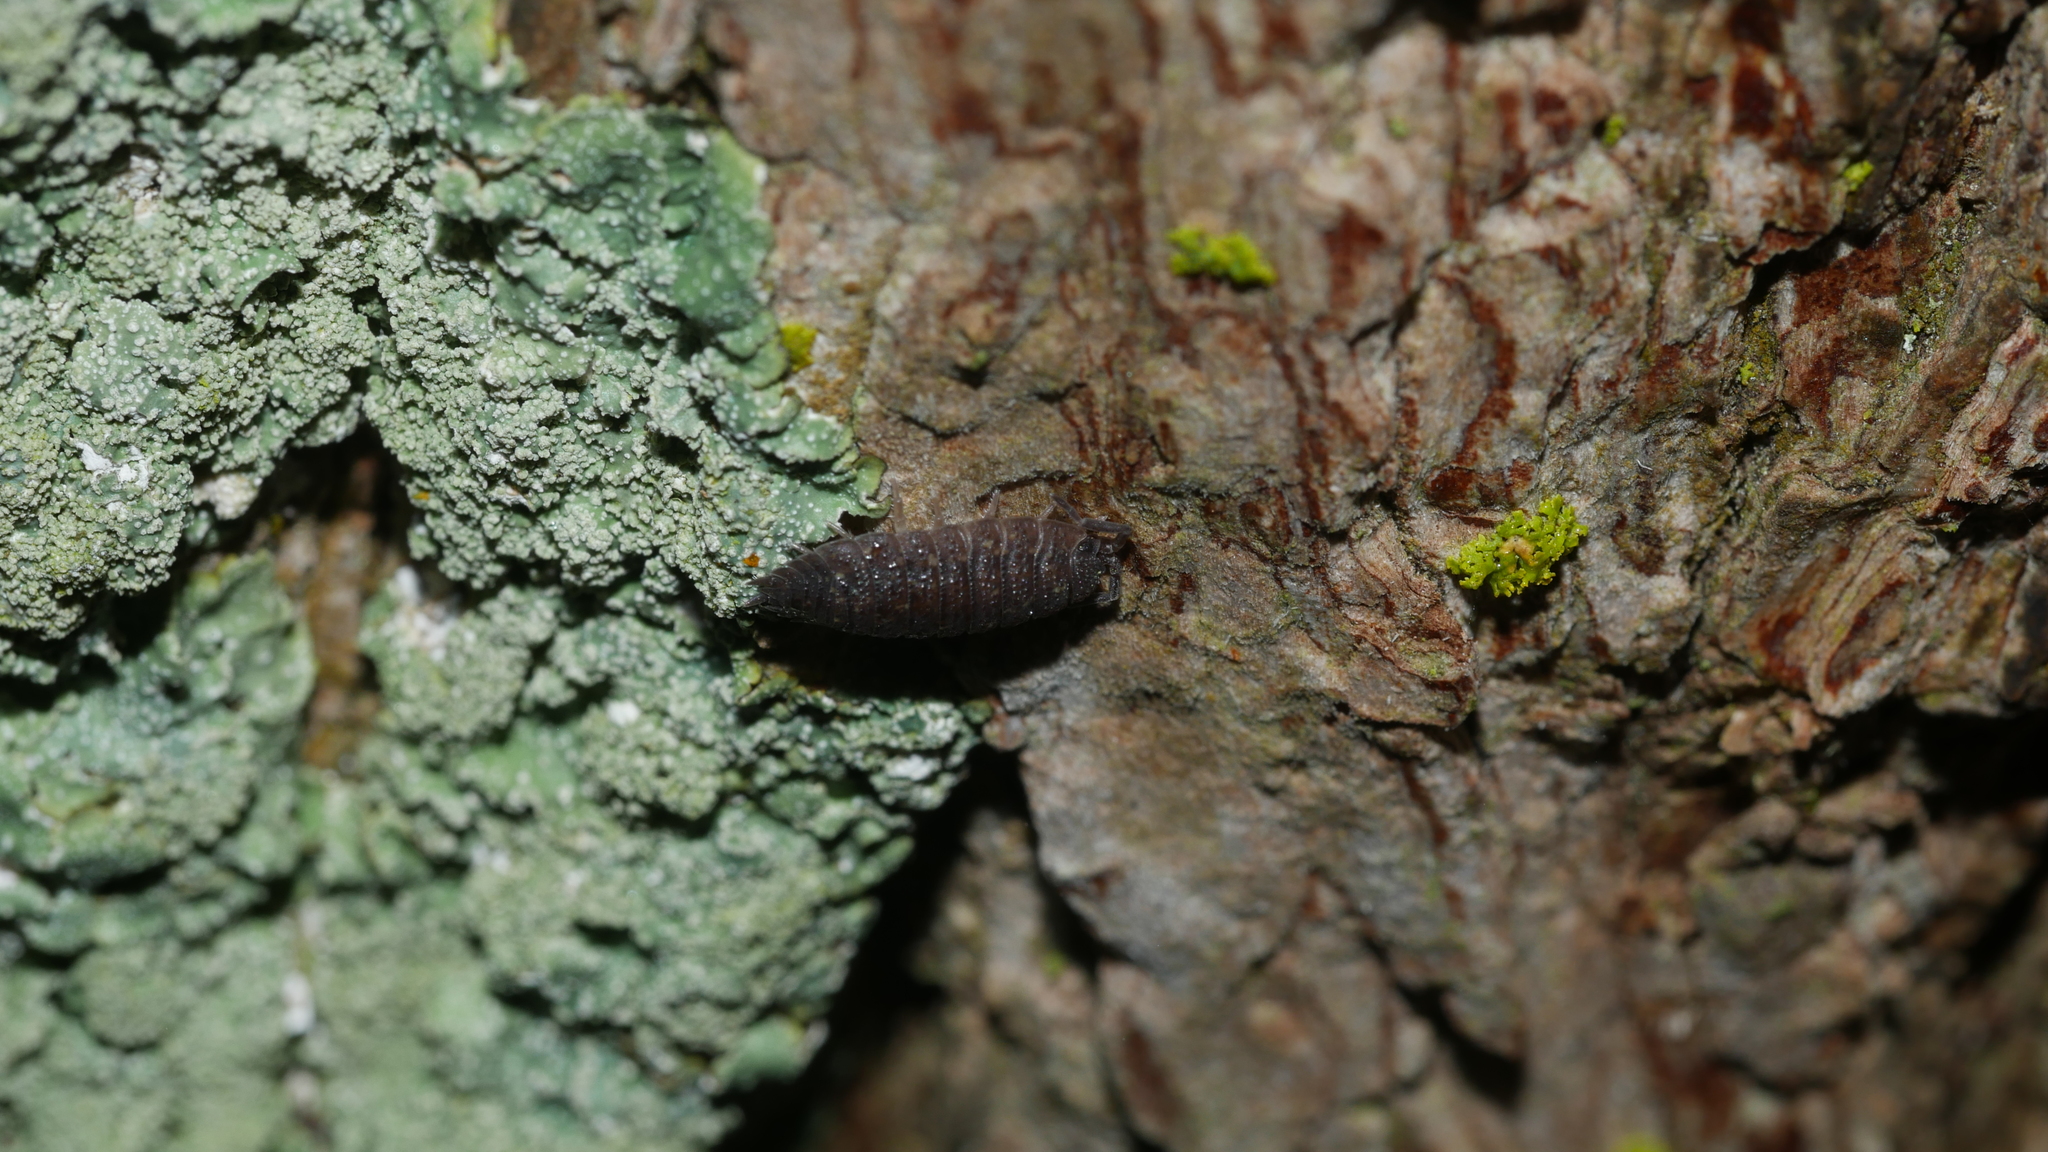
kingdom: Animalia
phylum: Arthropoda
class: Malacostraca
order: Isopoda
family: Porcellionidae
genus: Porcellio
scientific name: Porcellio scaber
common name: Common rough woodlouse
